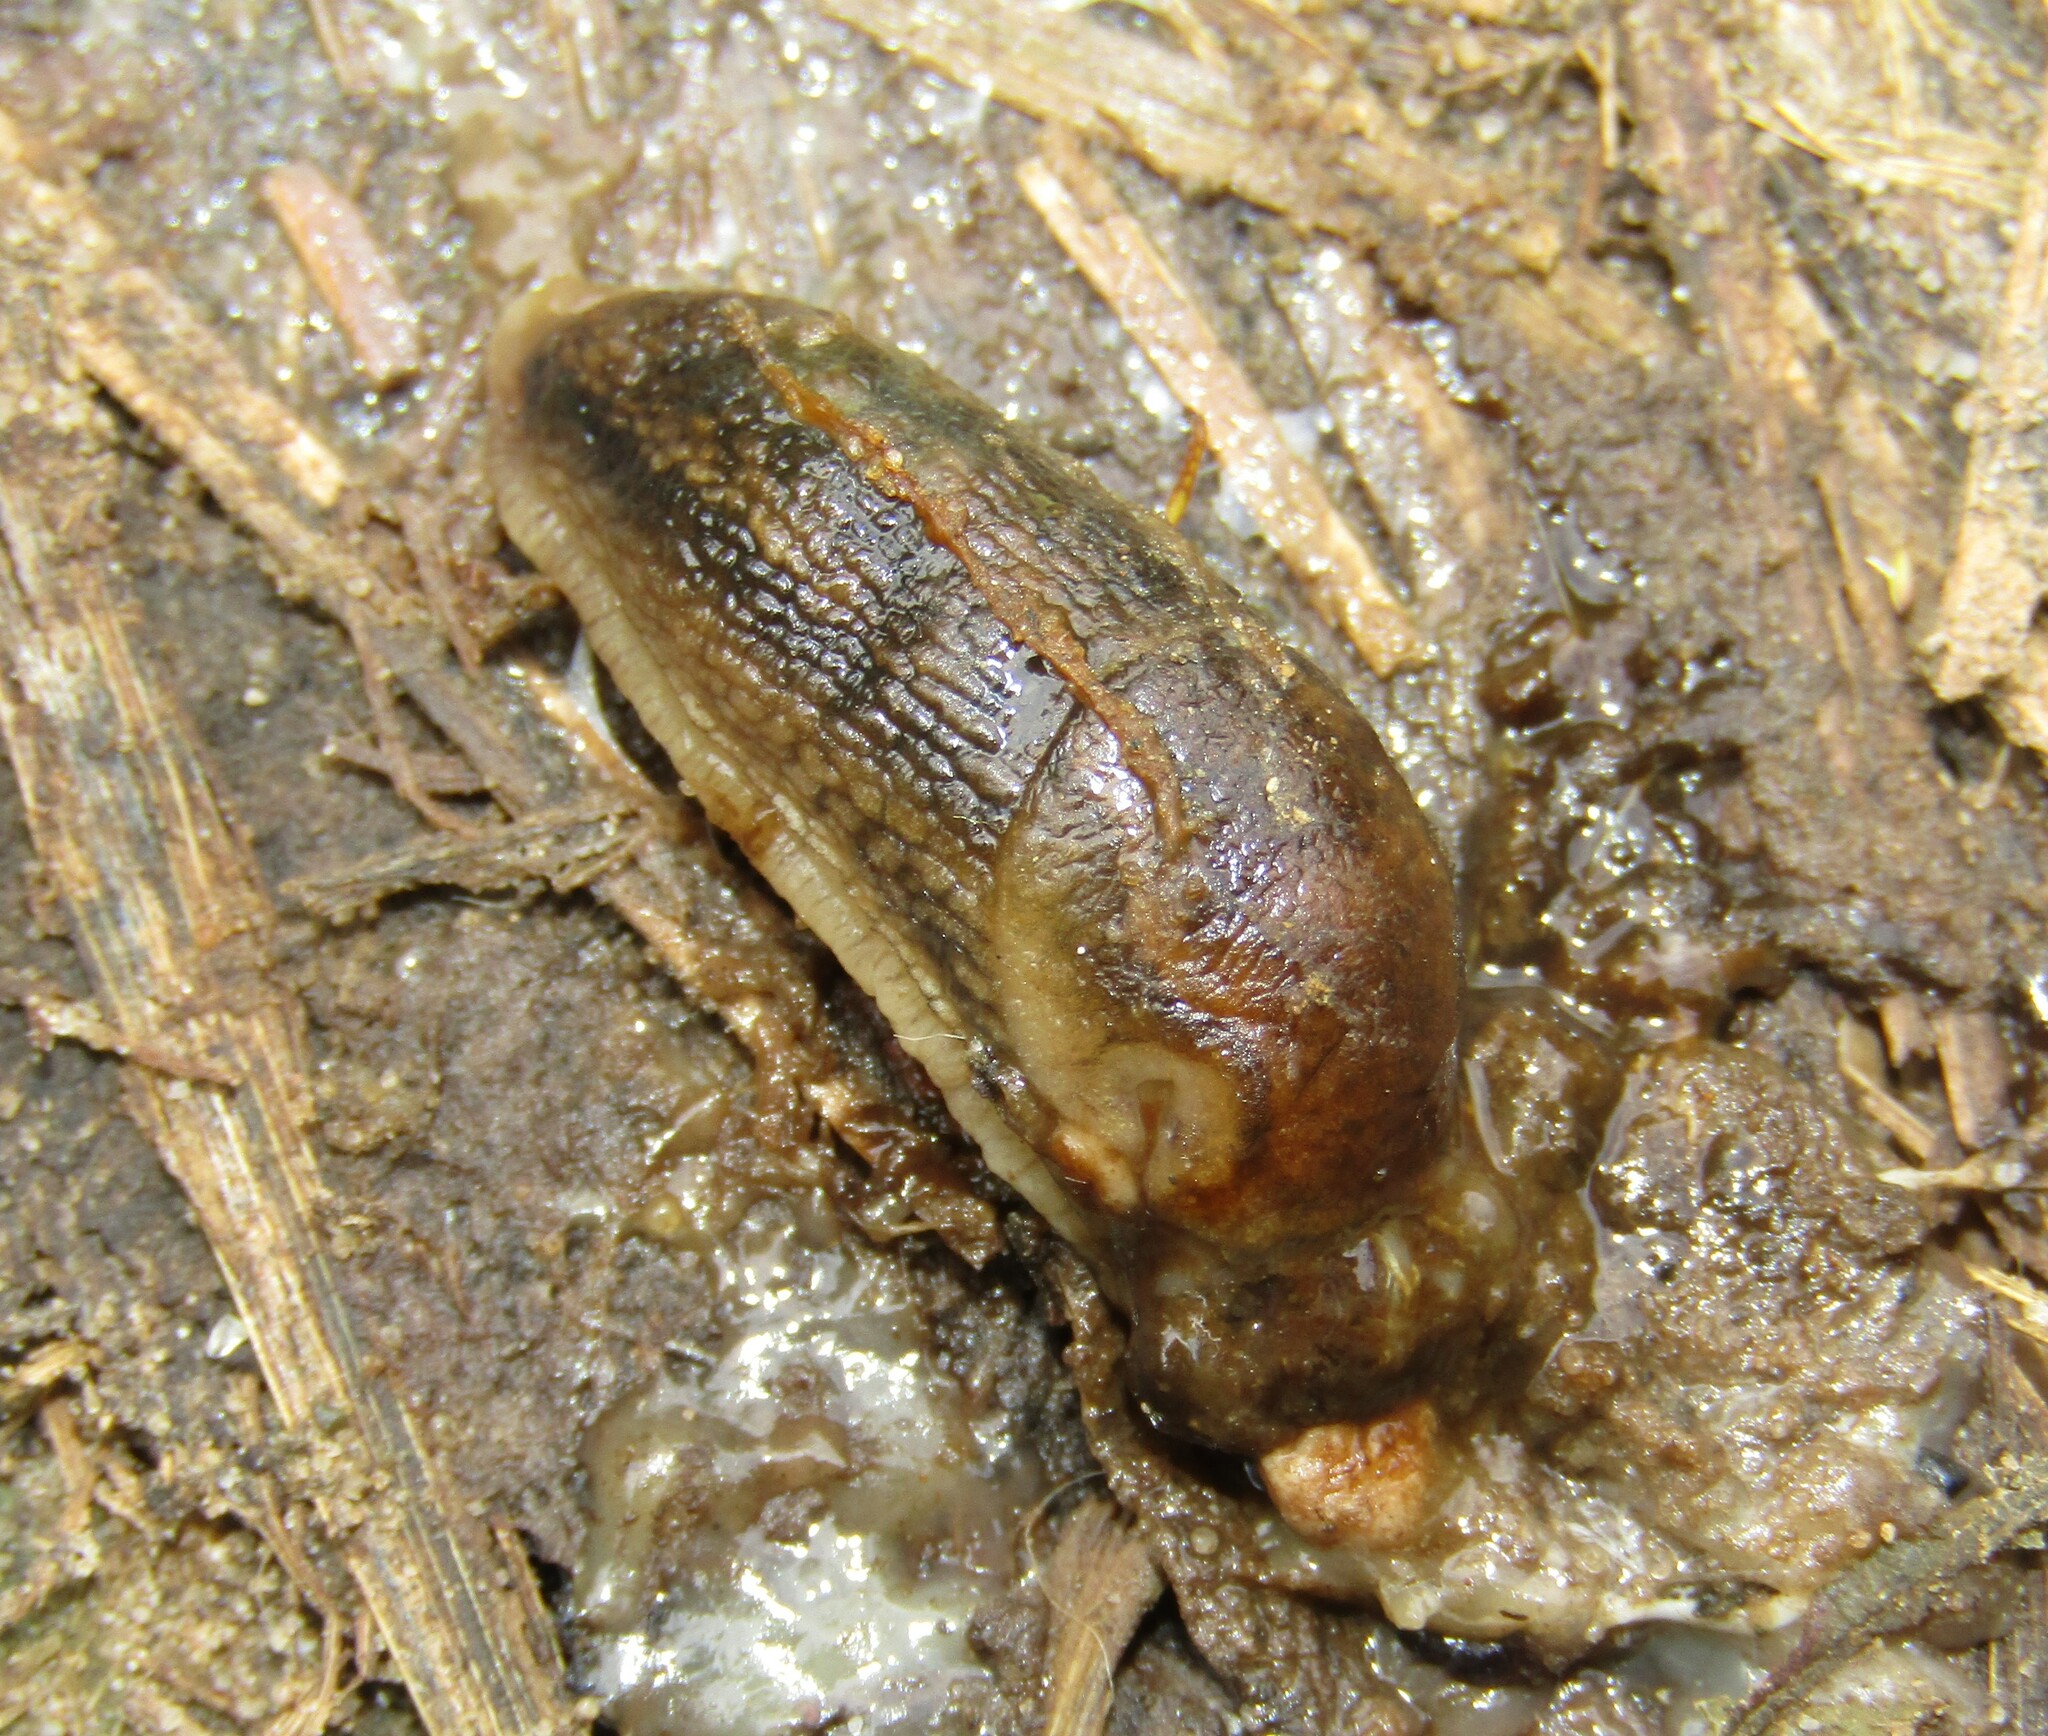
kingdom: Animalia
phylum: Mollusca
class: Gastropoda
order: Stylommatophora
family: Arionidae
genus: Arion
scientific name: Arion fuscus
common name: Northern dusky slug
